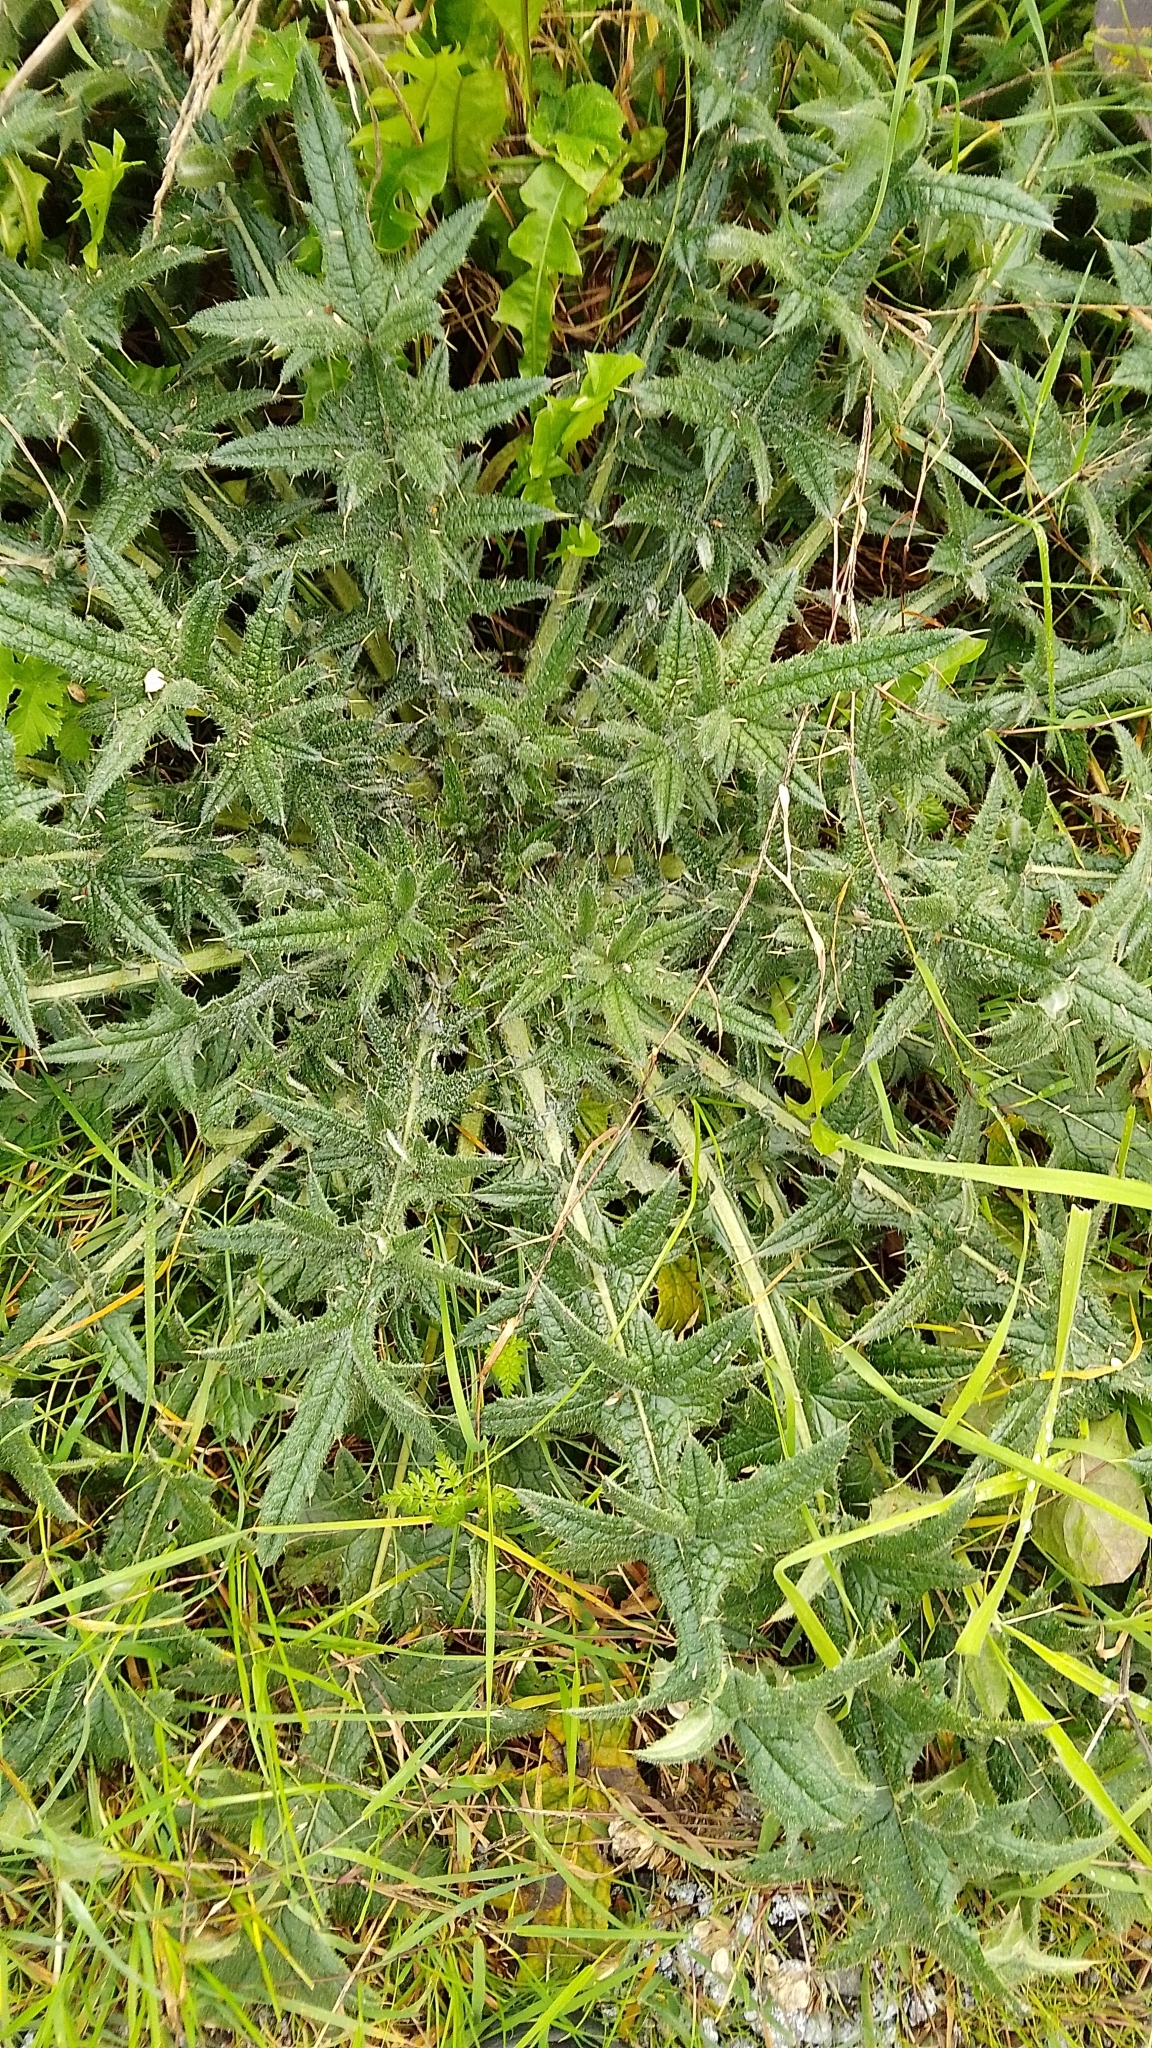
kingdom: Plantae
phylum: Tracheophyta
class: Magnoliopsida
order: Asterales
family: Asteraceae
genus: Cirsium
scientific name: Cirsium vulgare
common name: Bull thistle
